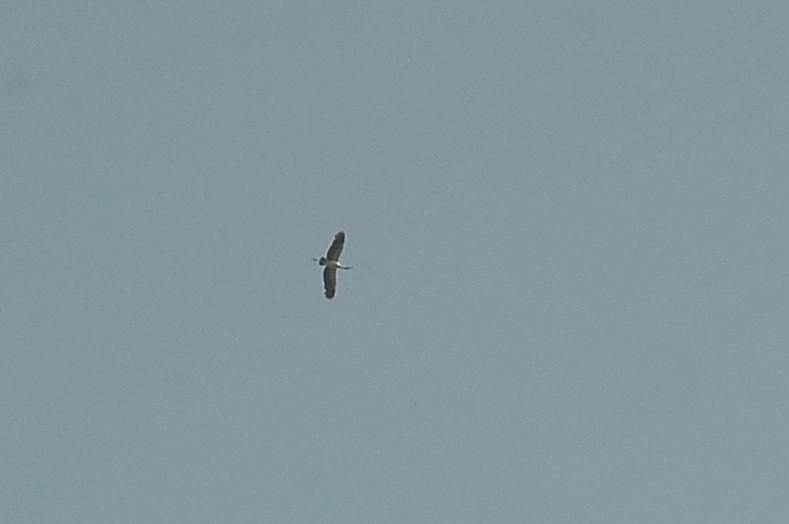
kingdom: Animalia
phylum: Chordata
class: Aves
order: Ciconiiformes
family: Ciconiidae
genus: Anastomus
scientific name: Anastomus oscitans
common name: Asian openbill
